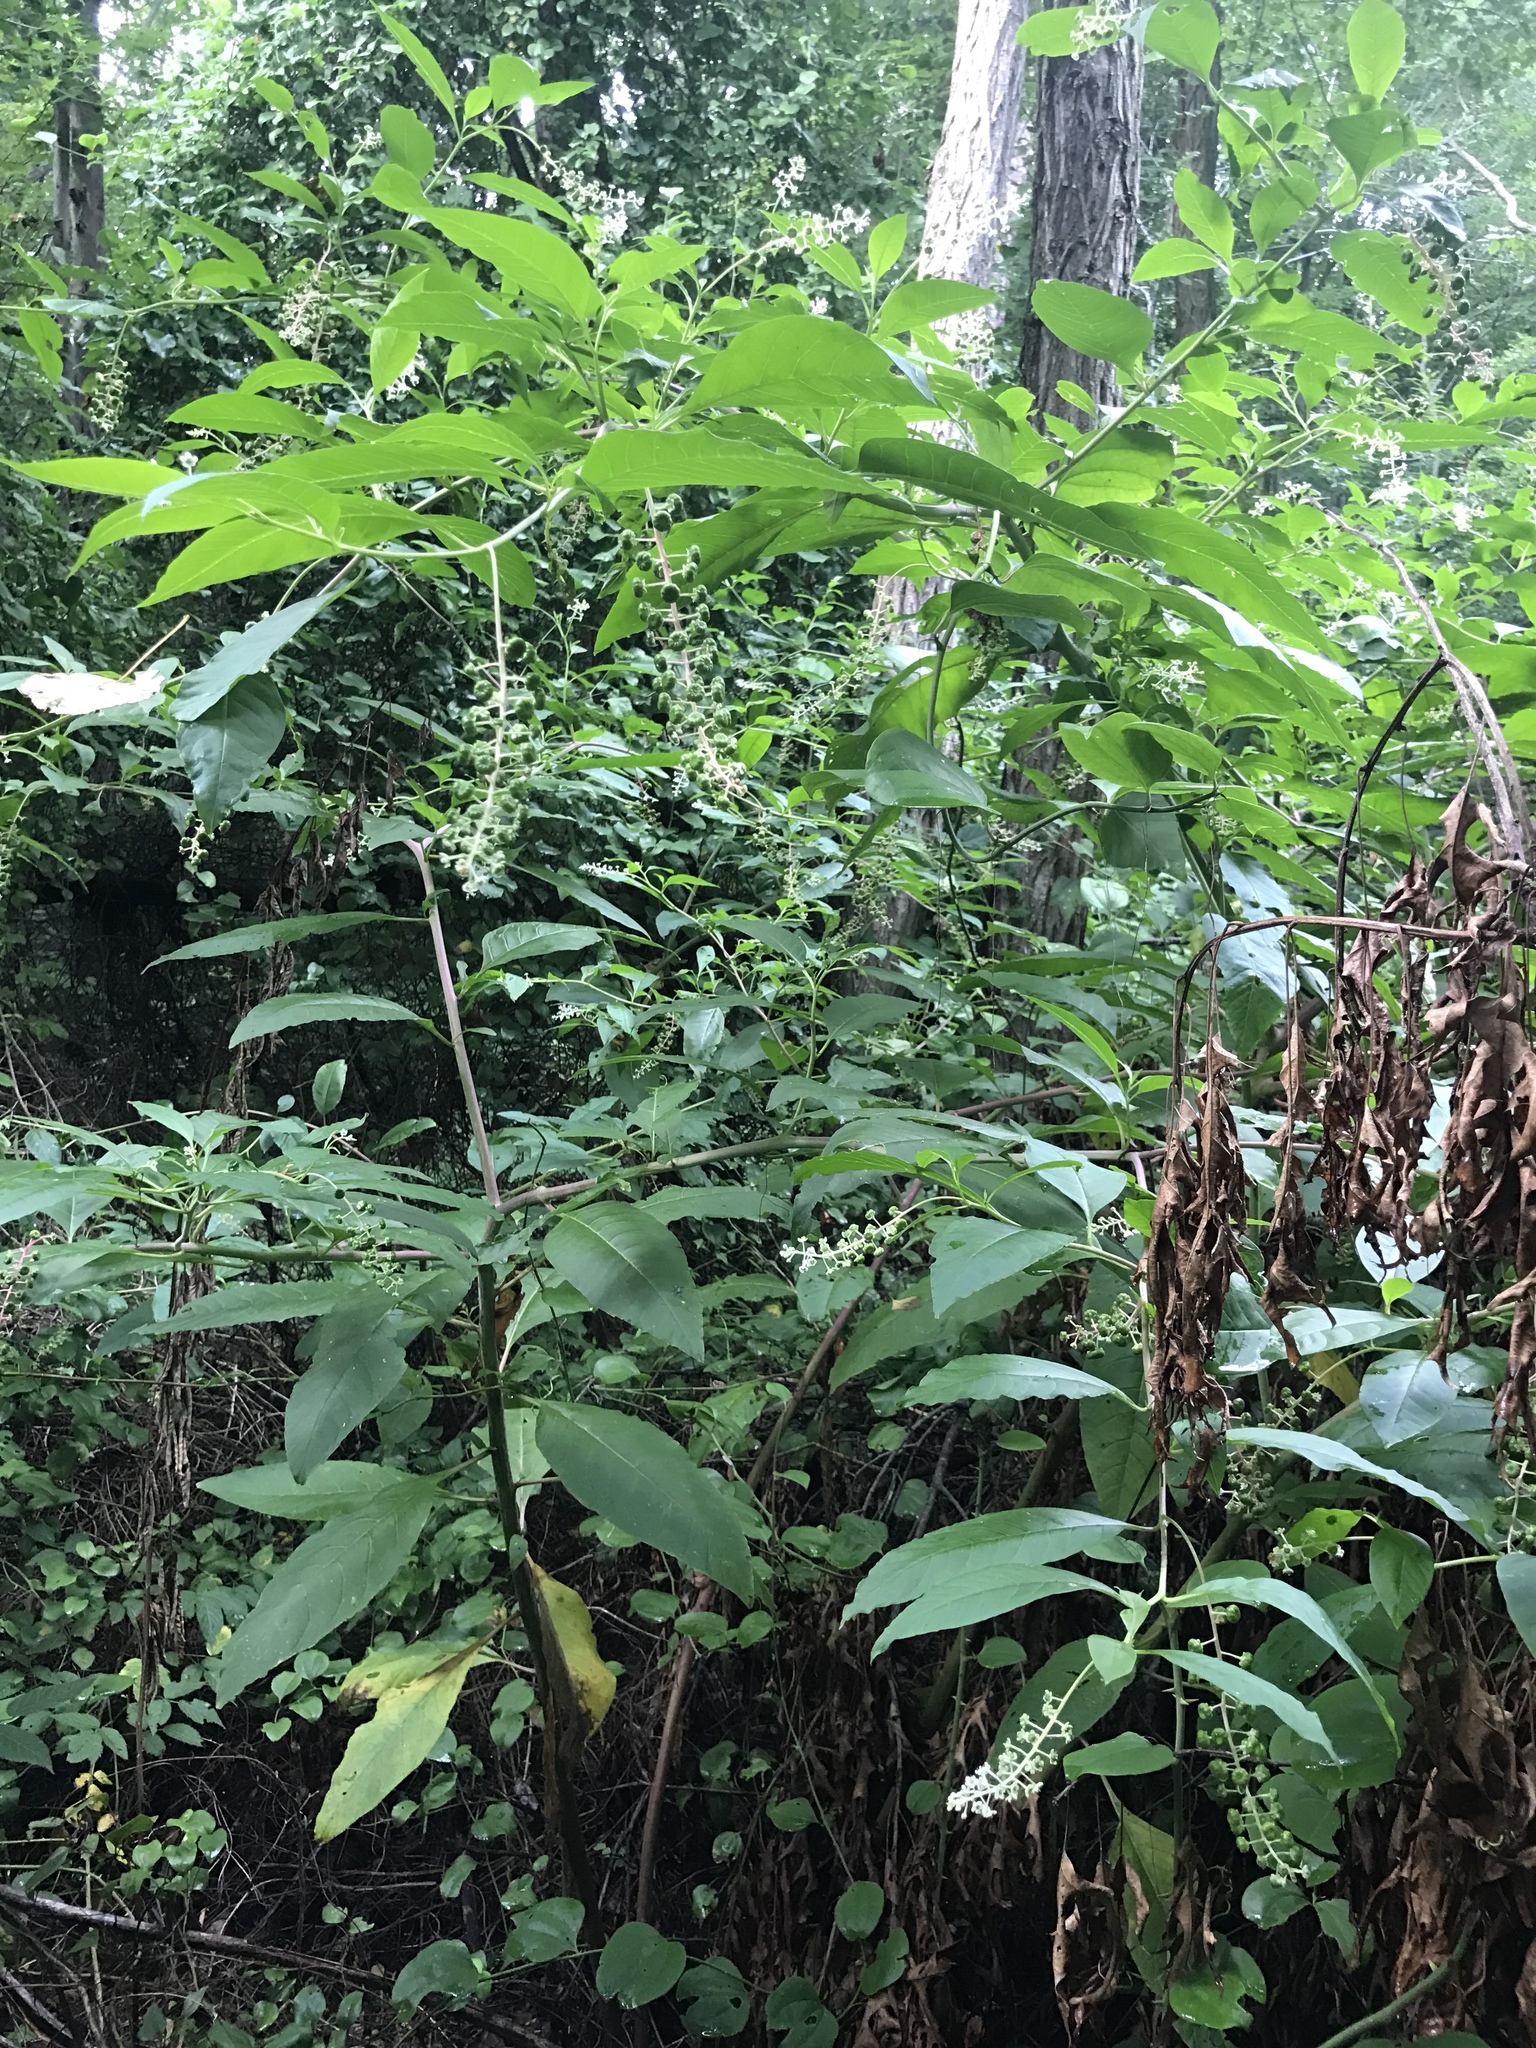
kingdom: Plantae
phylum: Tracheophyta
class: Magnoliopsida
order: Caryophyllales
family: Phytolaccaceae
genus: Phytolacca
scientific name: Phytolacca americana
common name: American pokeweed
